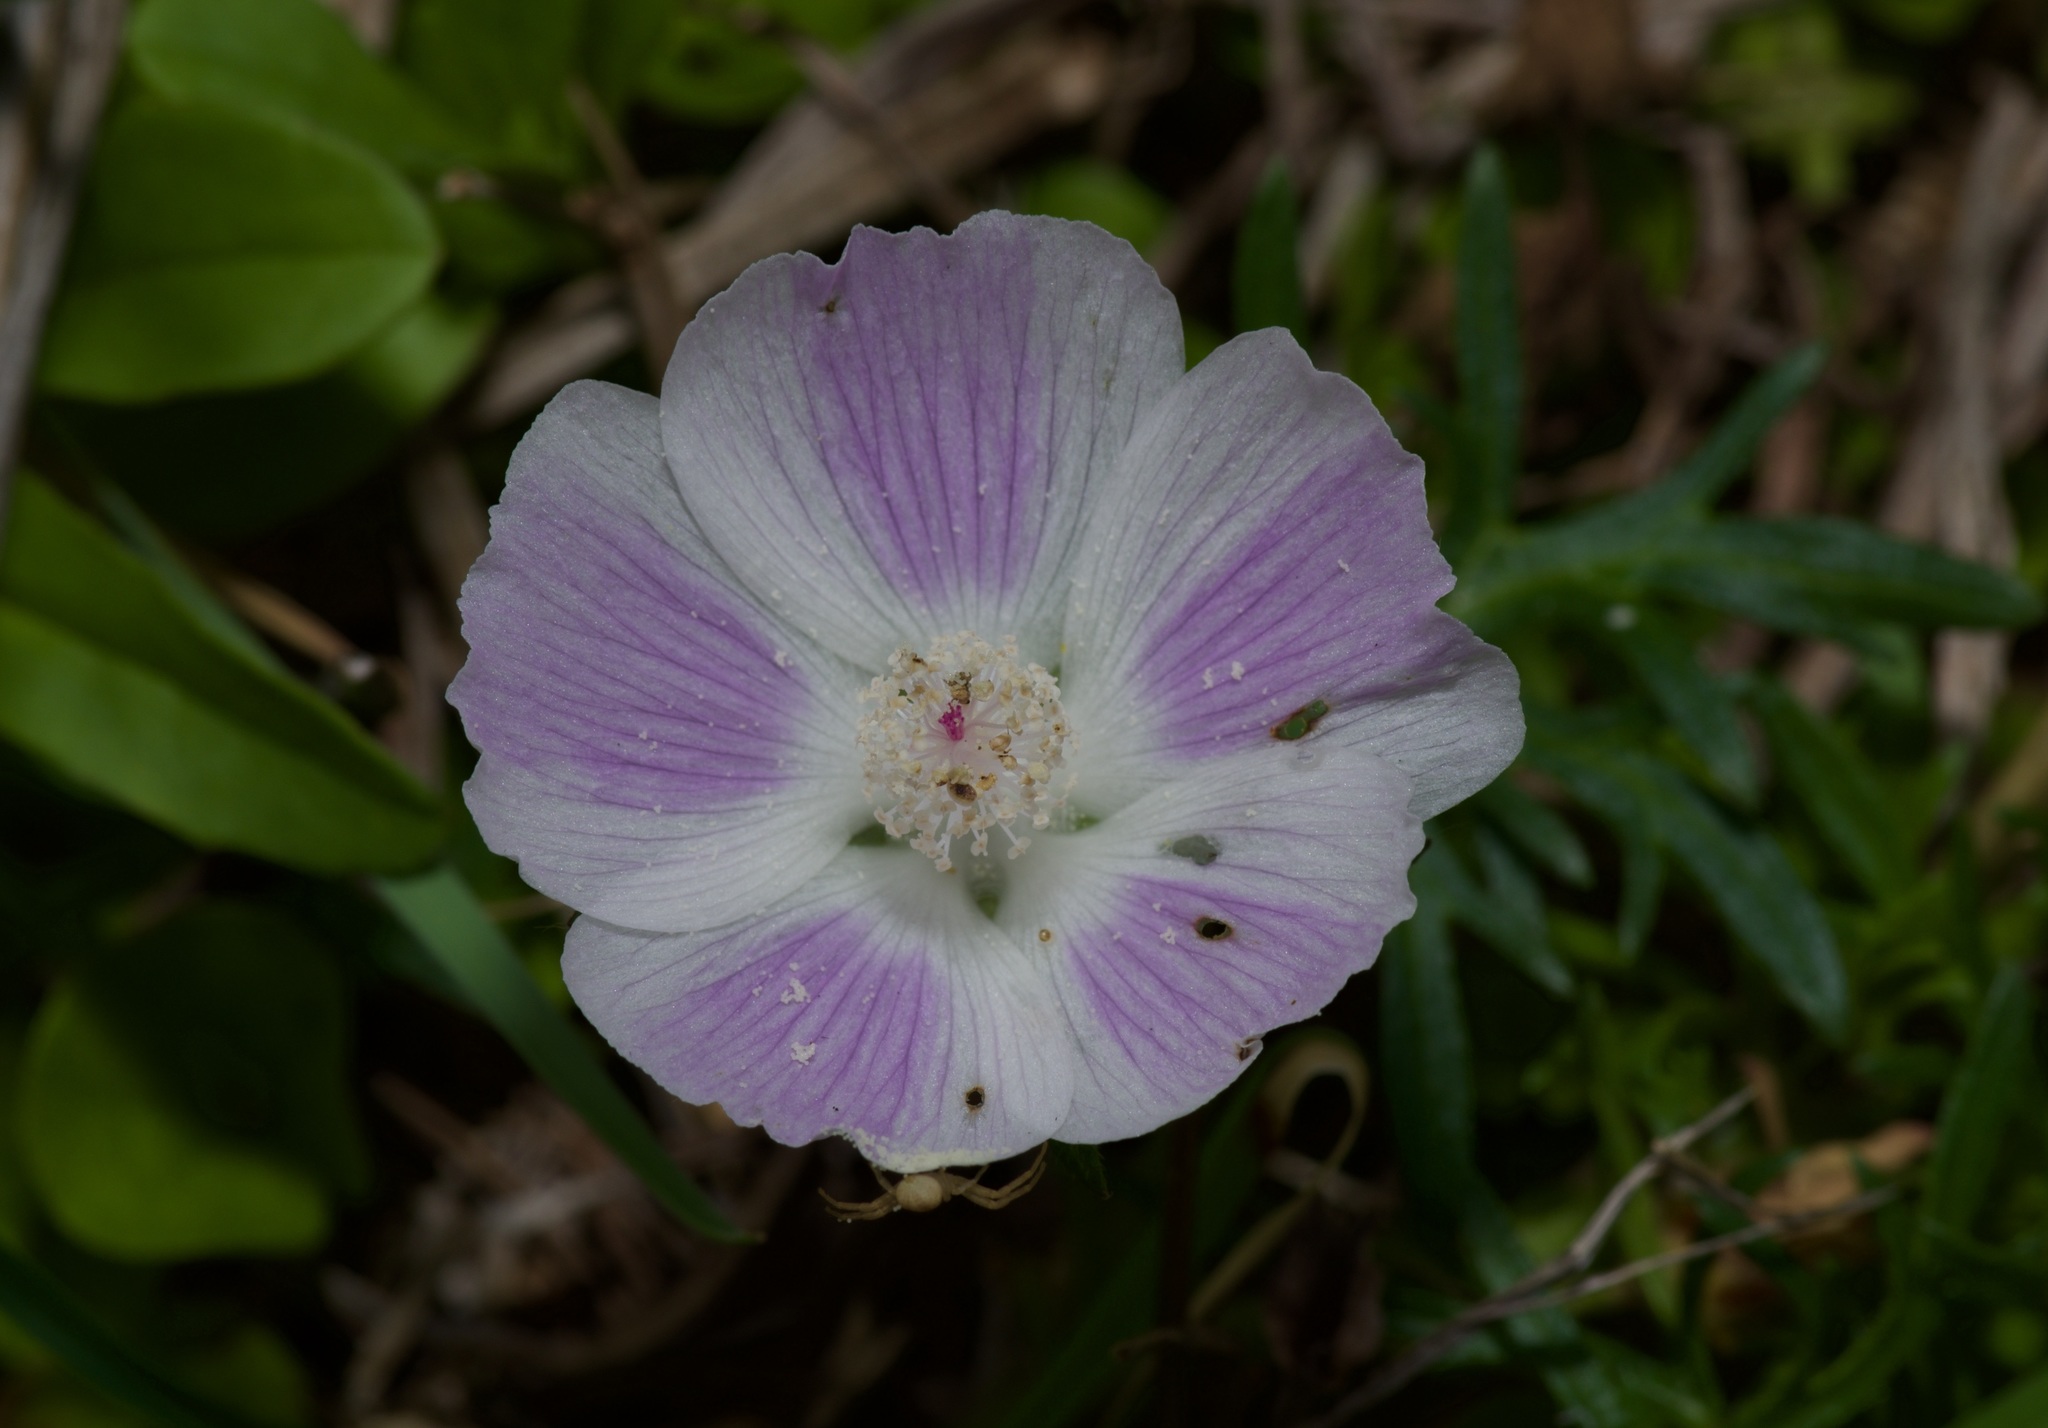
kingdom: Plantae
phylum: Tracheophyta
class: Magnoliopsida
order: Malvales
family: Malvaceae
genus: Callirhoe
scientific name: Callirhoe involucrata
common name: Purple poppy-mallow
